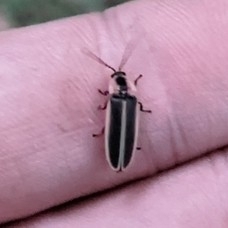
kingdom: Animalia
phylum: Arthropoda
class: Insecta
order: Coleoptera
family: Lampyridae
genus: Photinus
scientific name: Photinus pyralis
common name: Big dipper firefly
